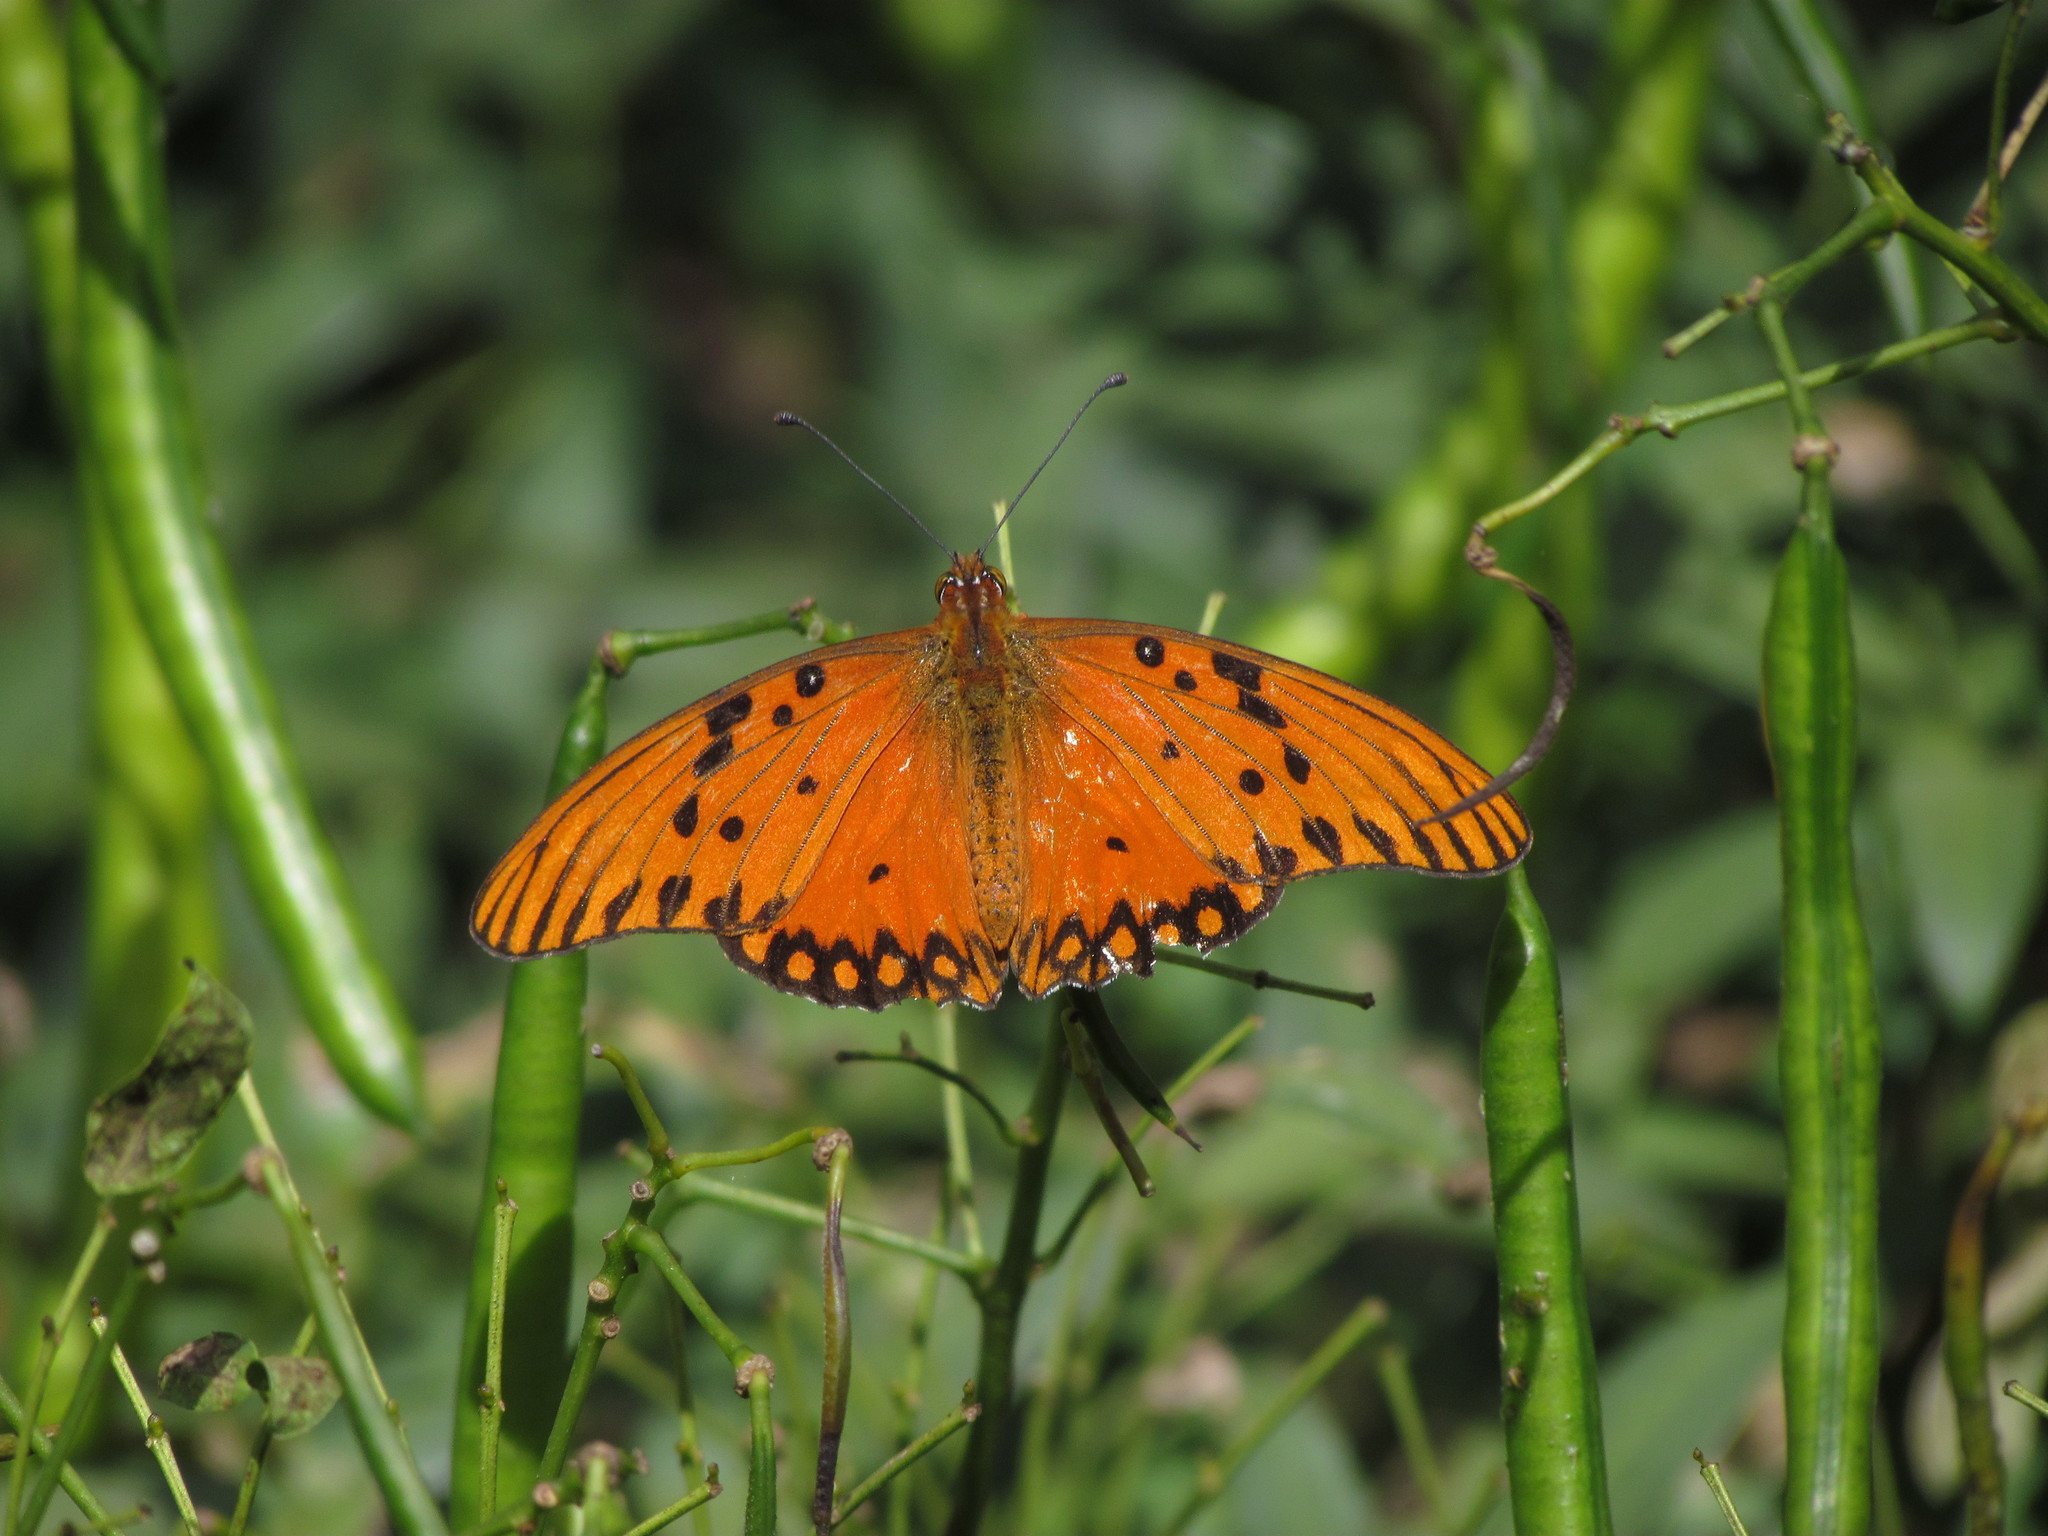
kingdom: Animalia
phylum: Arthropoda
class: Insecta
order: Lepidoptera
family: Nymphalidae
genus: Dione
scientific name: Dione vanillae
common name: Gulf fritillary
